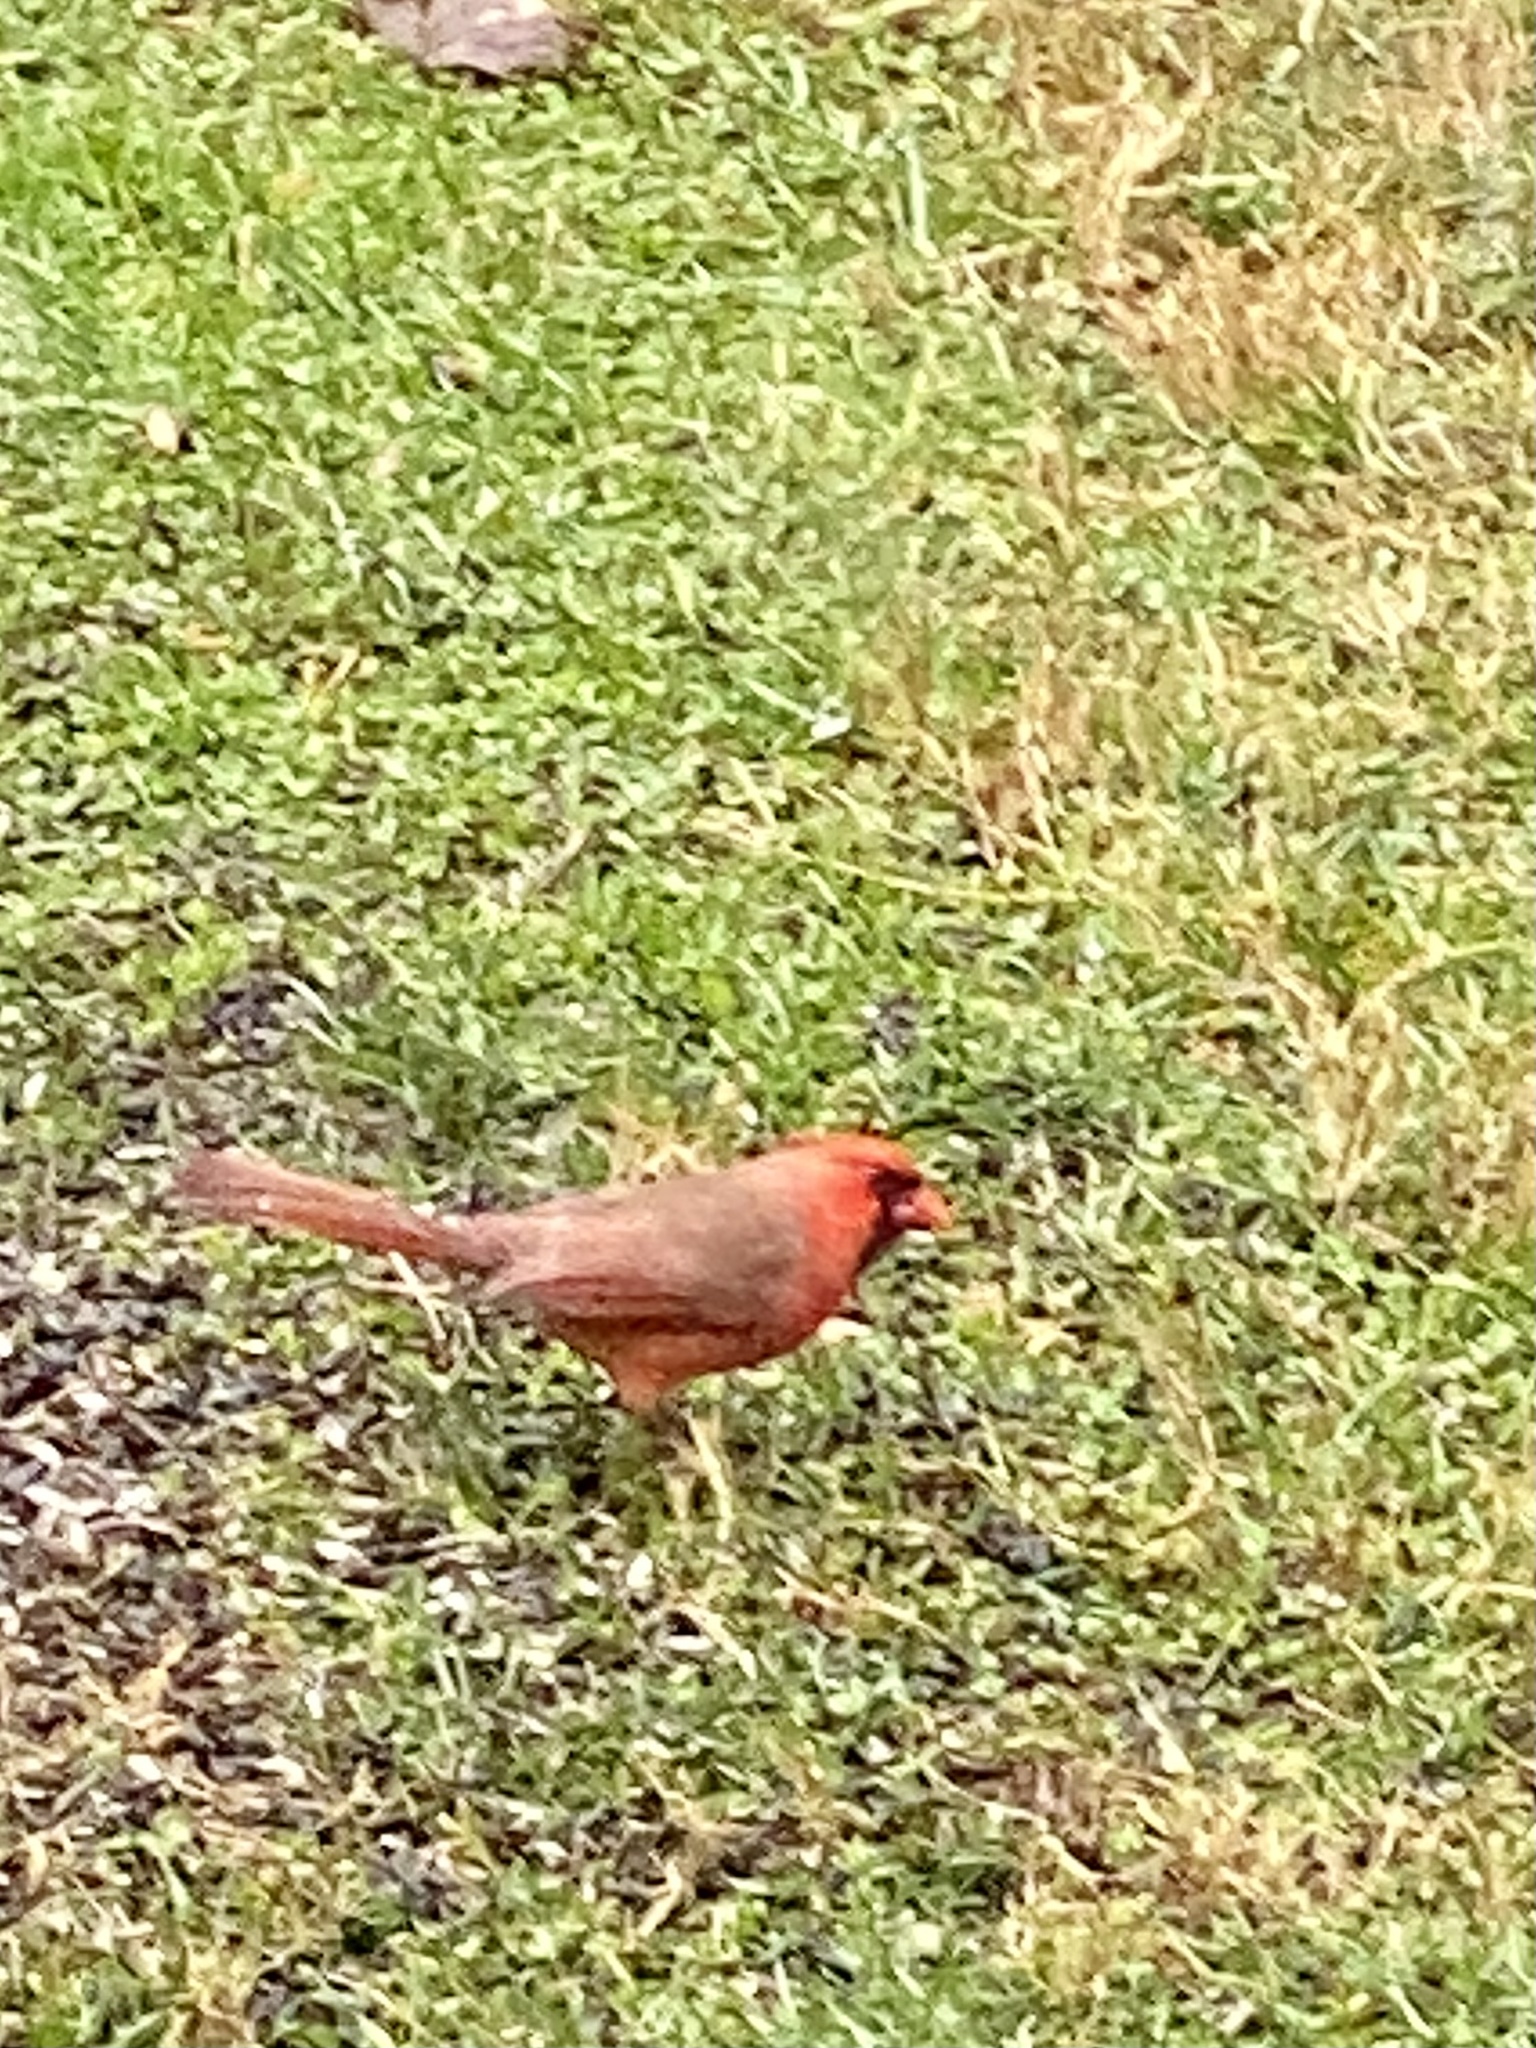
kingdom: Animalia
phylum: Chordata
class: Aves
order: Passeriformes
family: Cardinalidae
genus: Cardinalis
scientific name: Cardinalis cardinalis
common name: Northern cardinal
